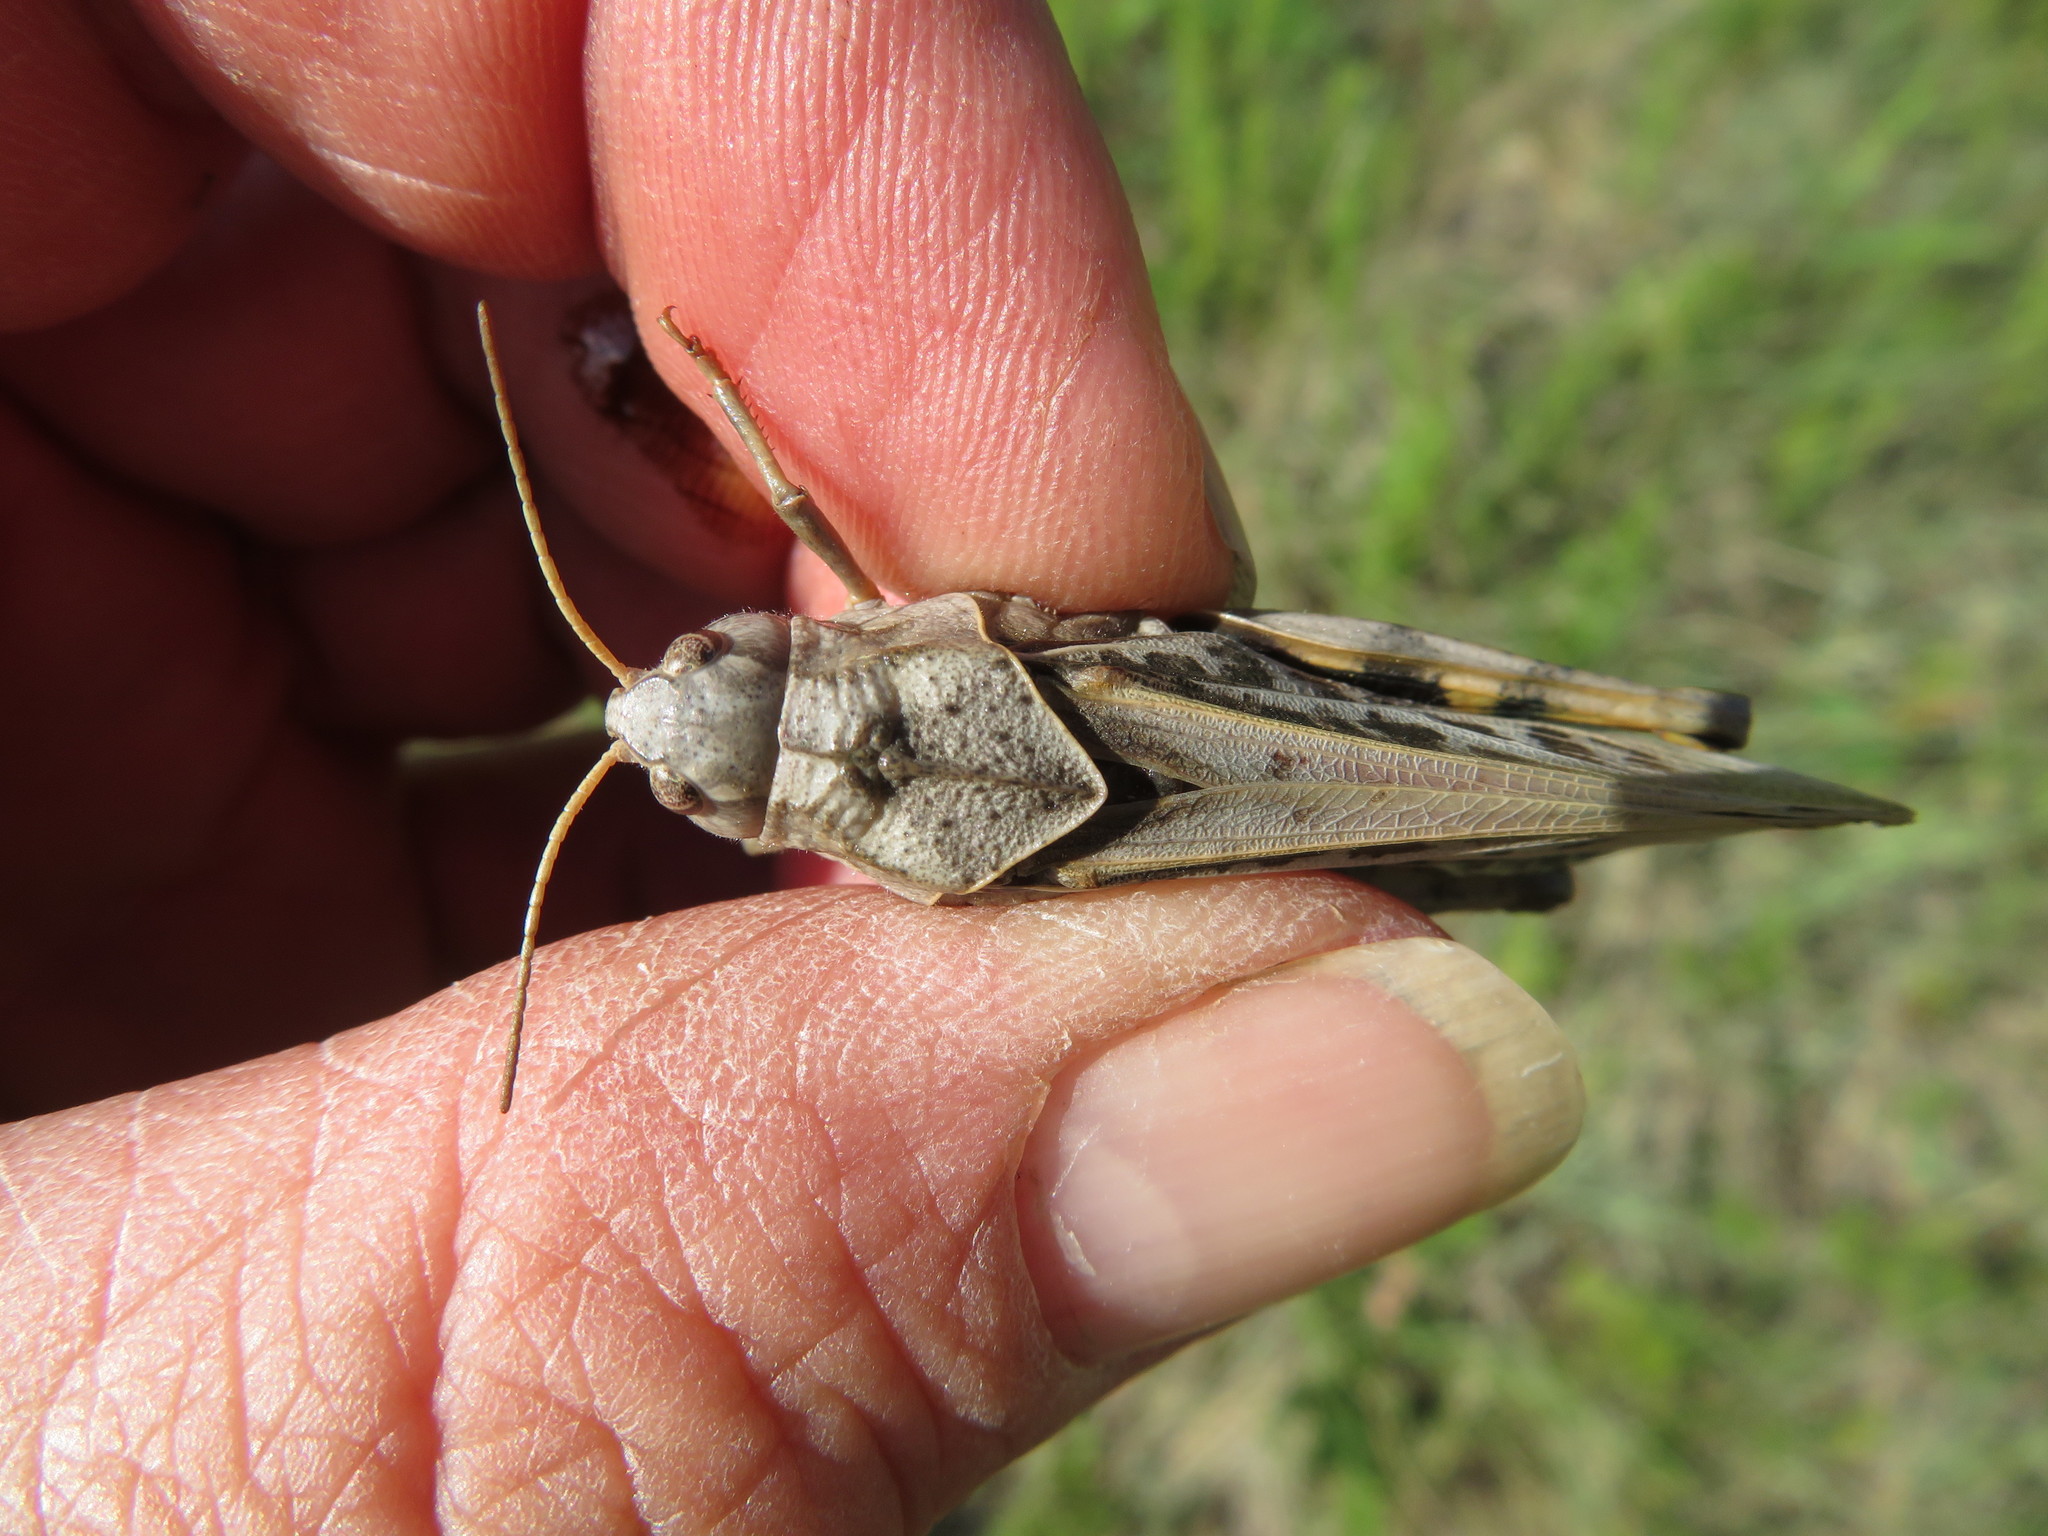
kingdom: Animalia
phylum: Arthropoda
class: Insecta
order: Orthoptera
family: Acrididae
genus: Pardalophora
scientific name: Pardalophora apiculata
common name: Coral-winged locust
